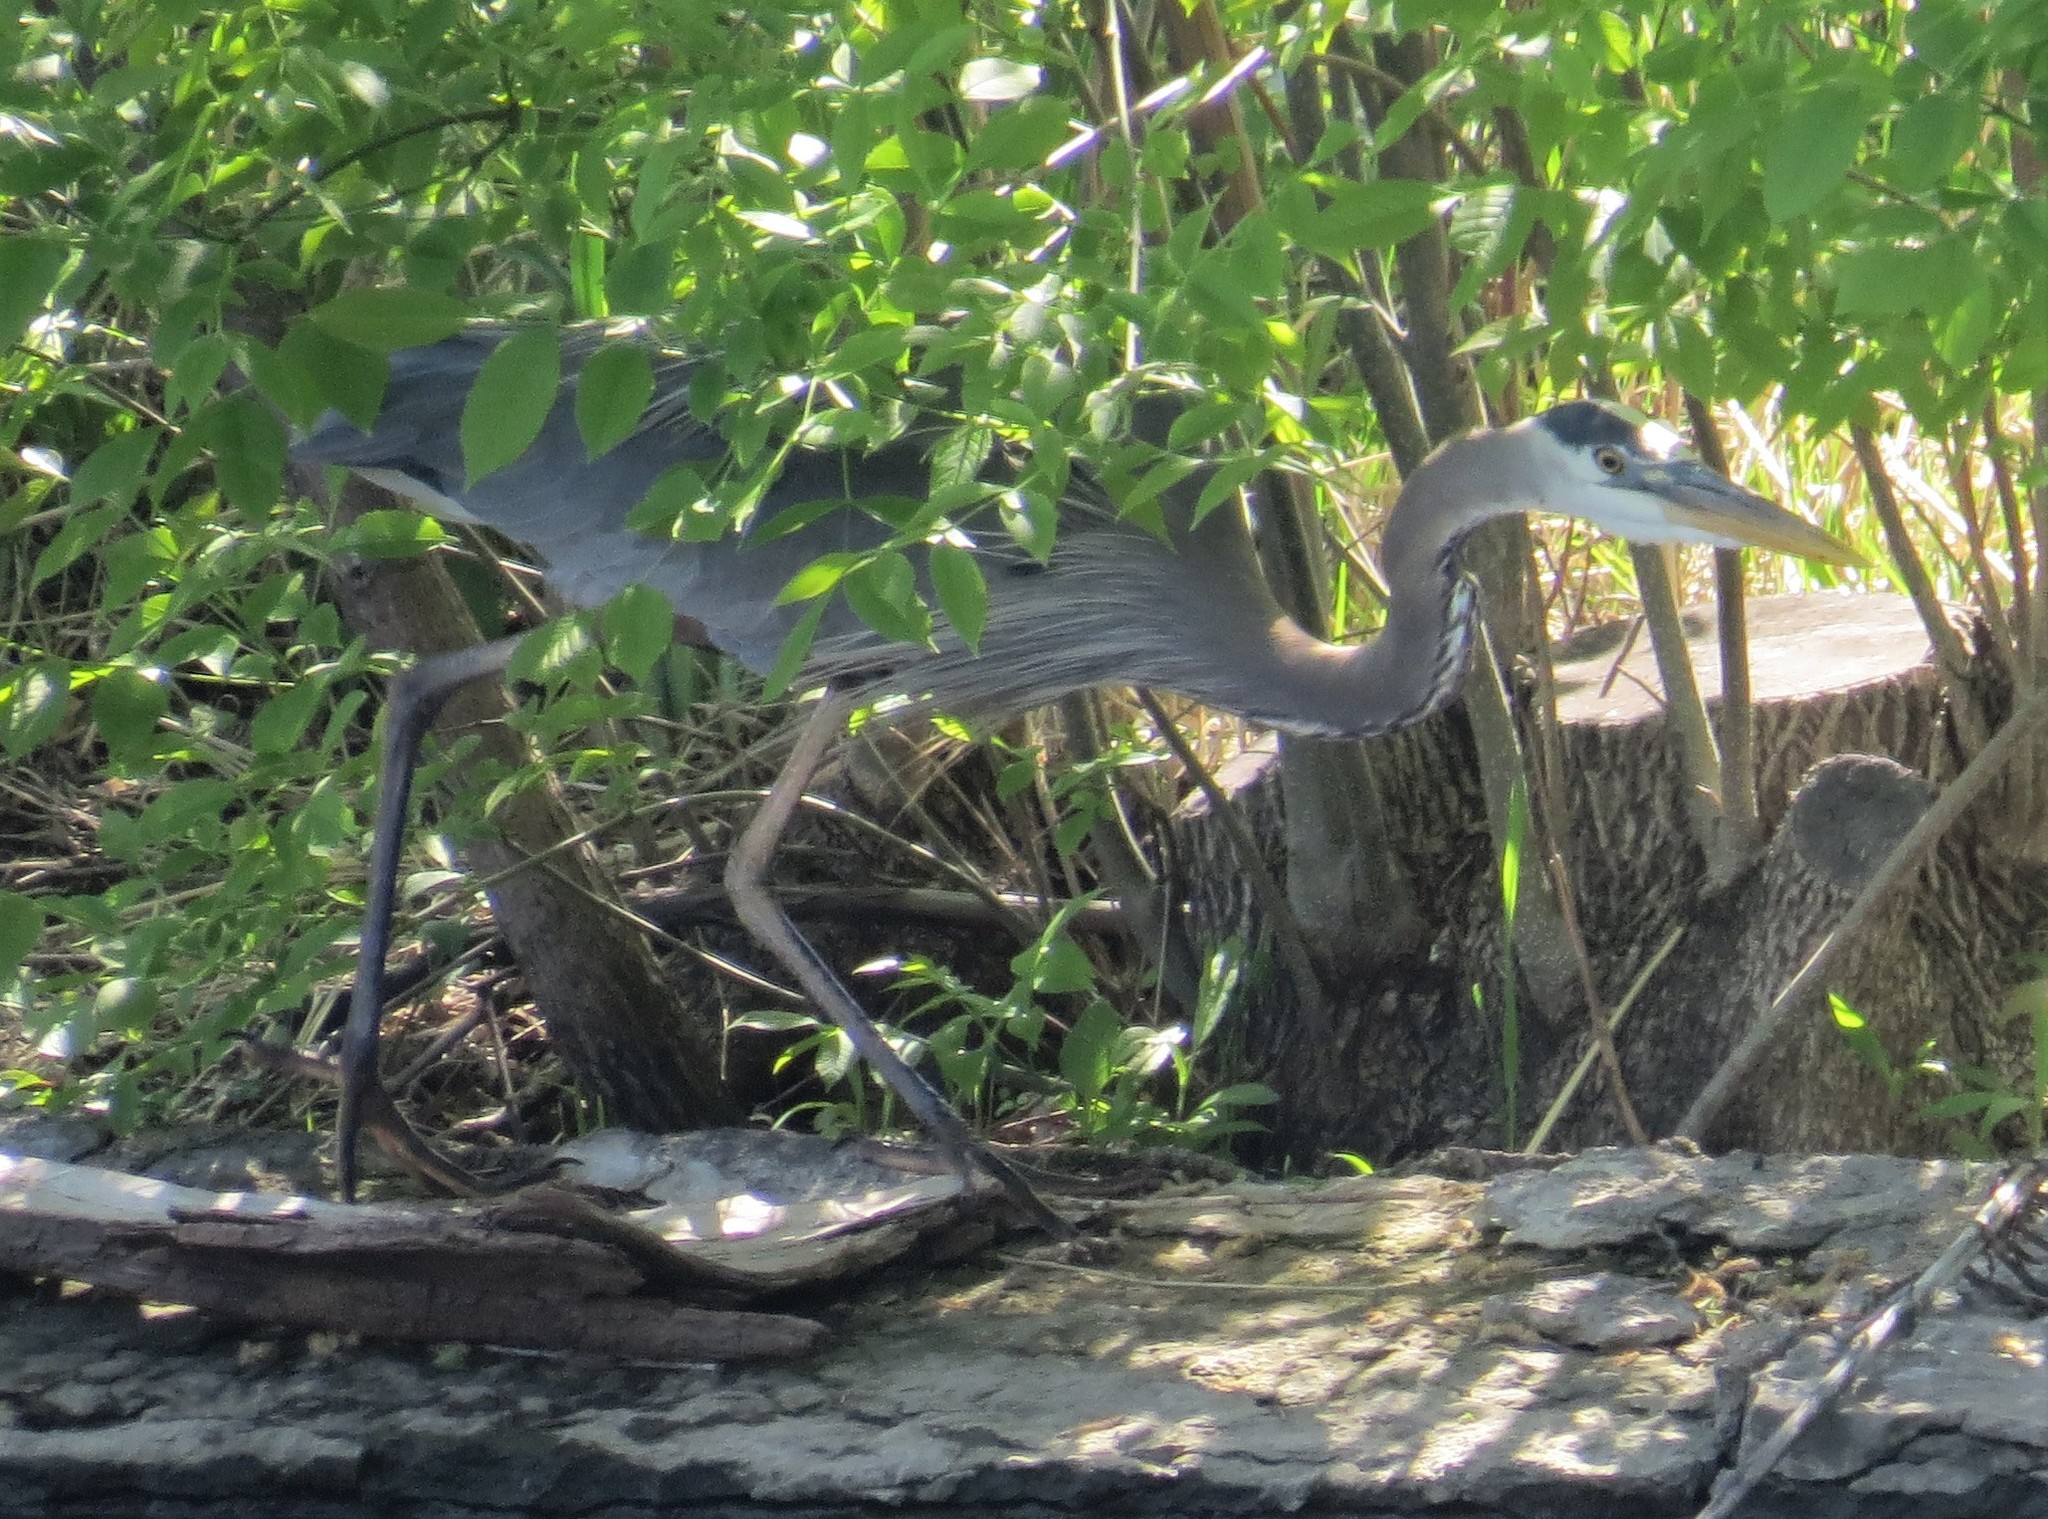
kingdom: Animalia
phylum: Chordata
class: Aves
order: Pelecaniformes
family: Ardeidae
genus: Ardea
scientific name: Ardea herodias
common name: Great blue heron
